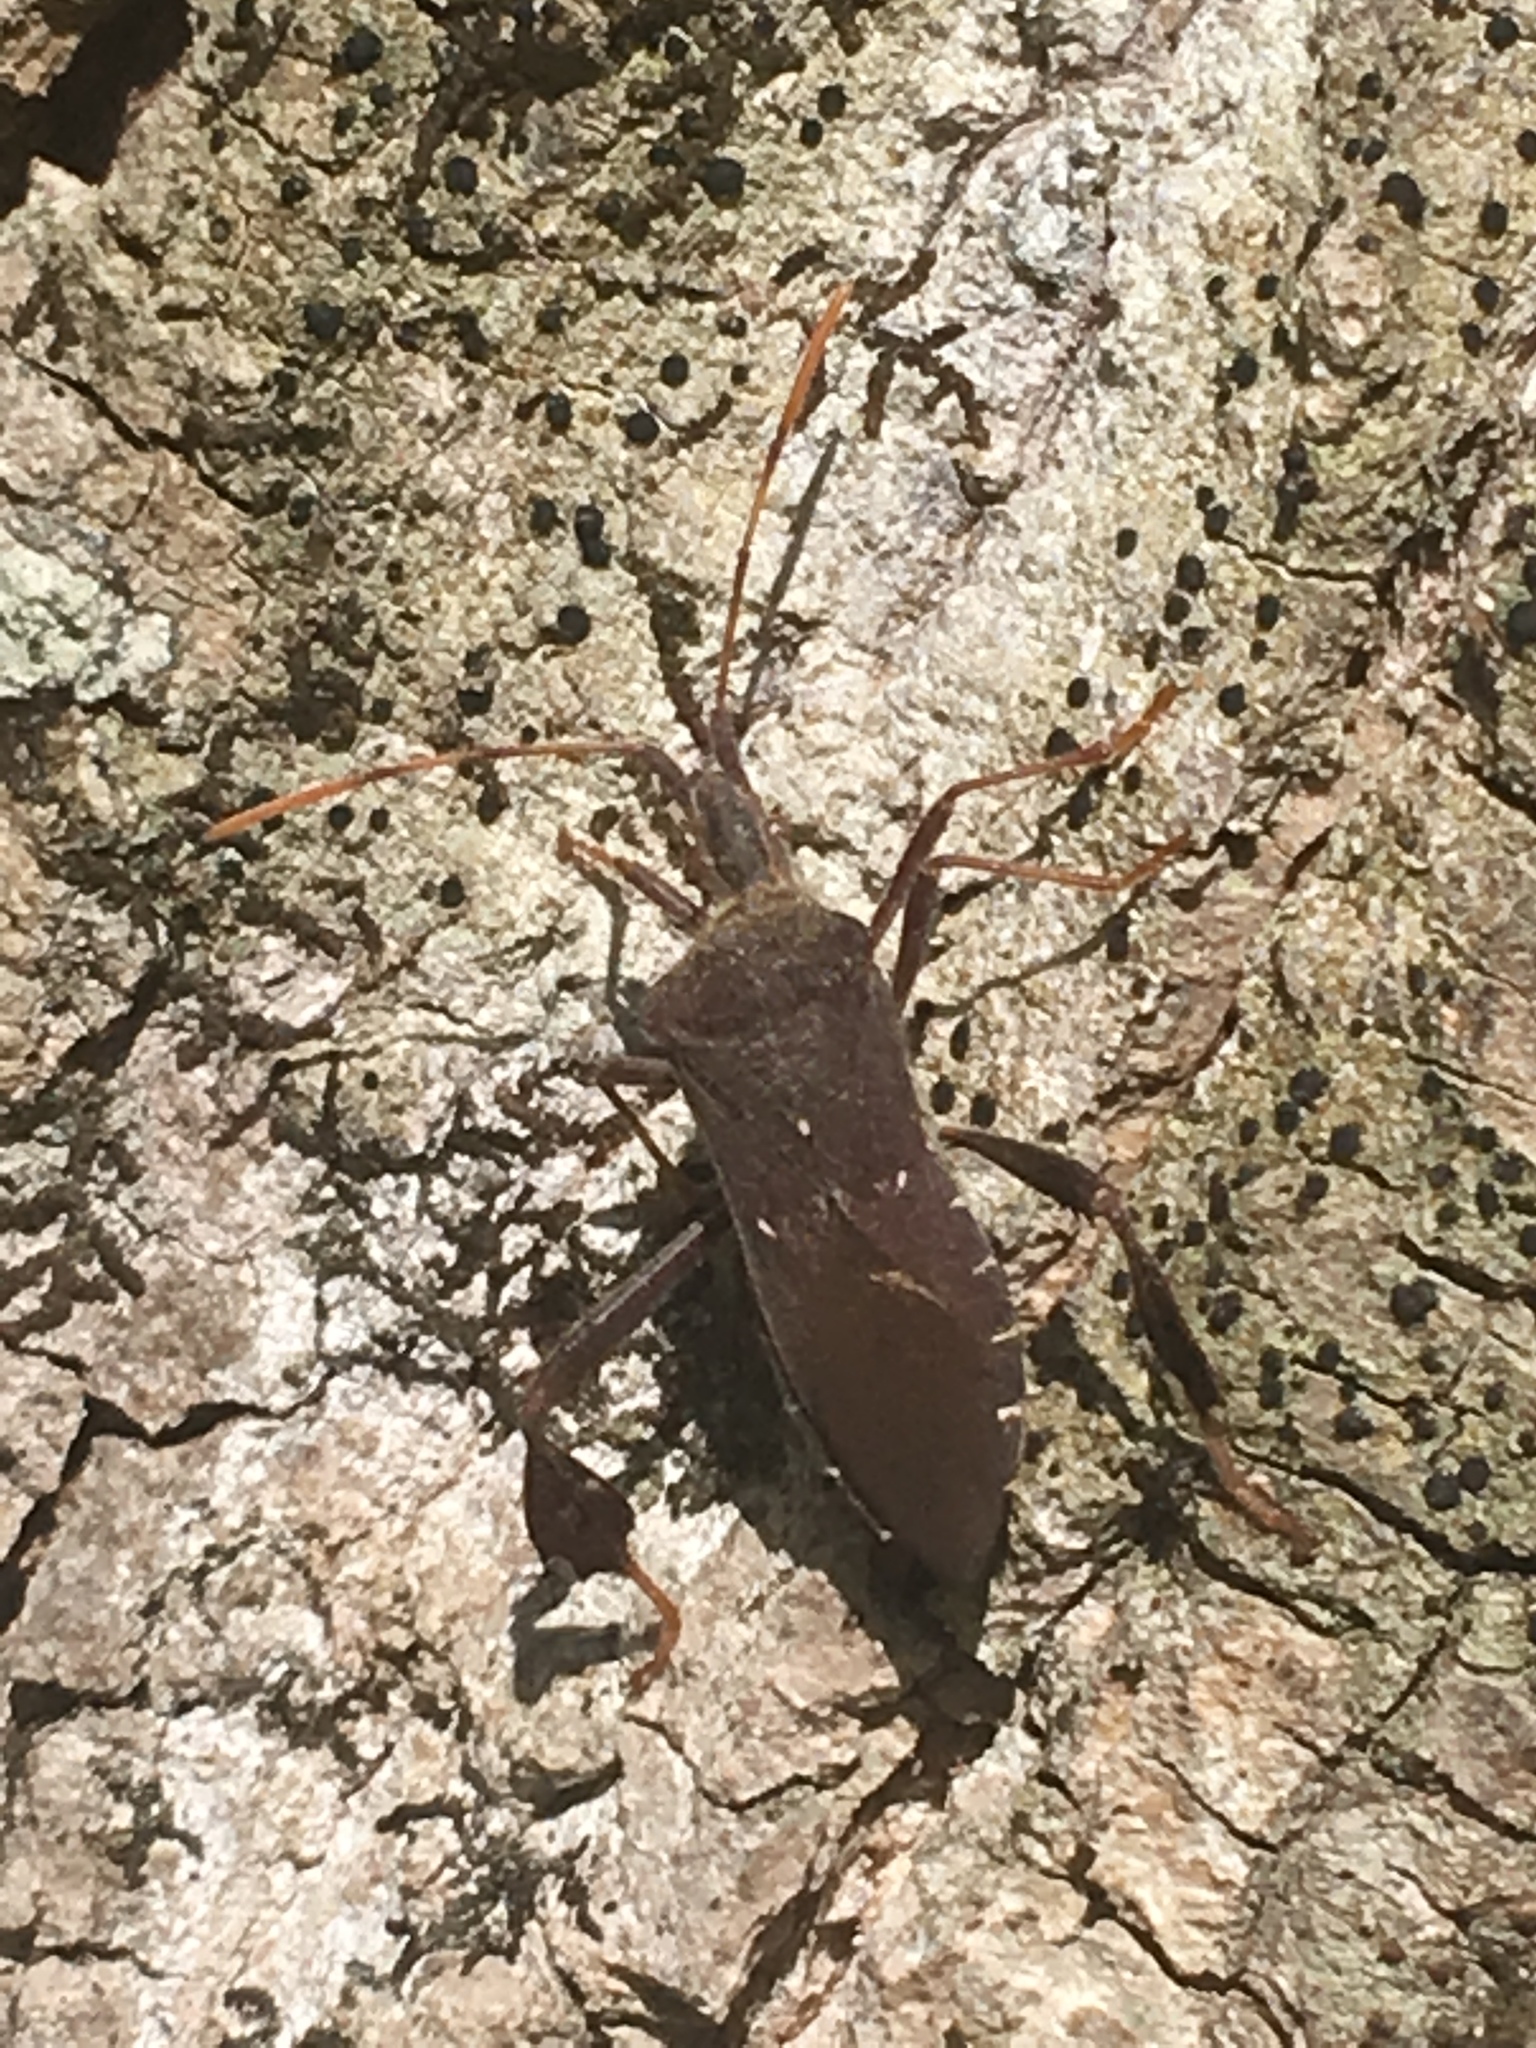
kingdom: Animalia
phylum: Arthropoda
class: Insecta
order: Hemiptera
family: Coreidae
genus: Leptoglossus
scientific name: Leptoglossus oppositus
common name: Northern leaf-footed bug
